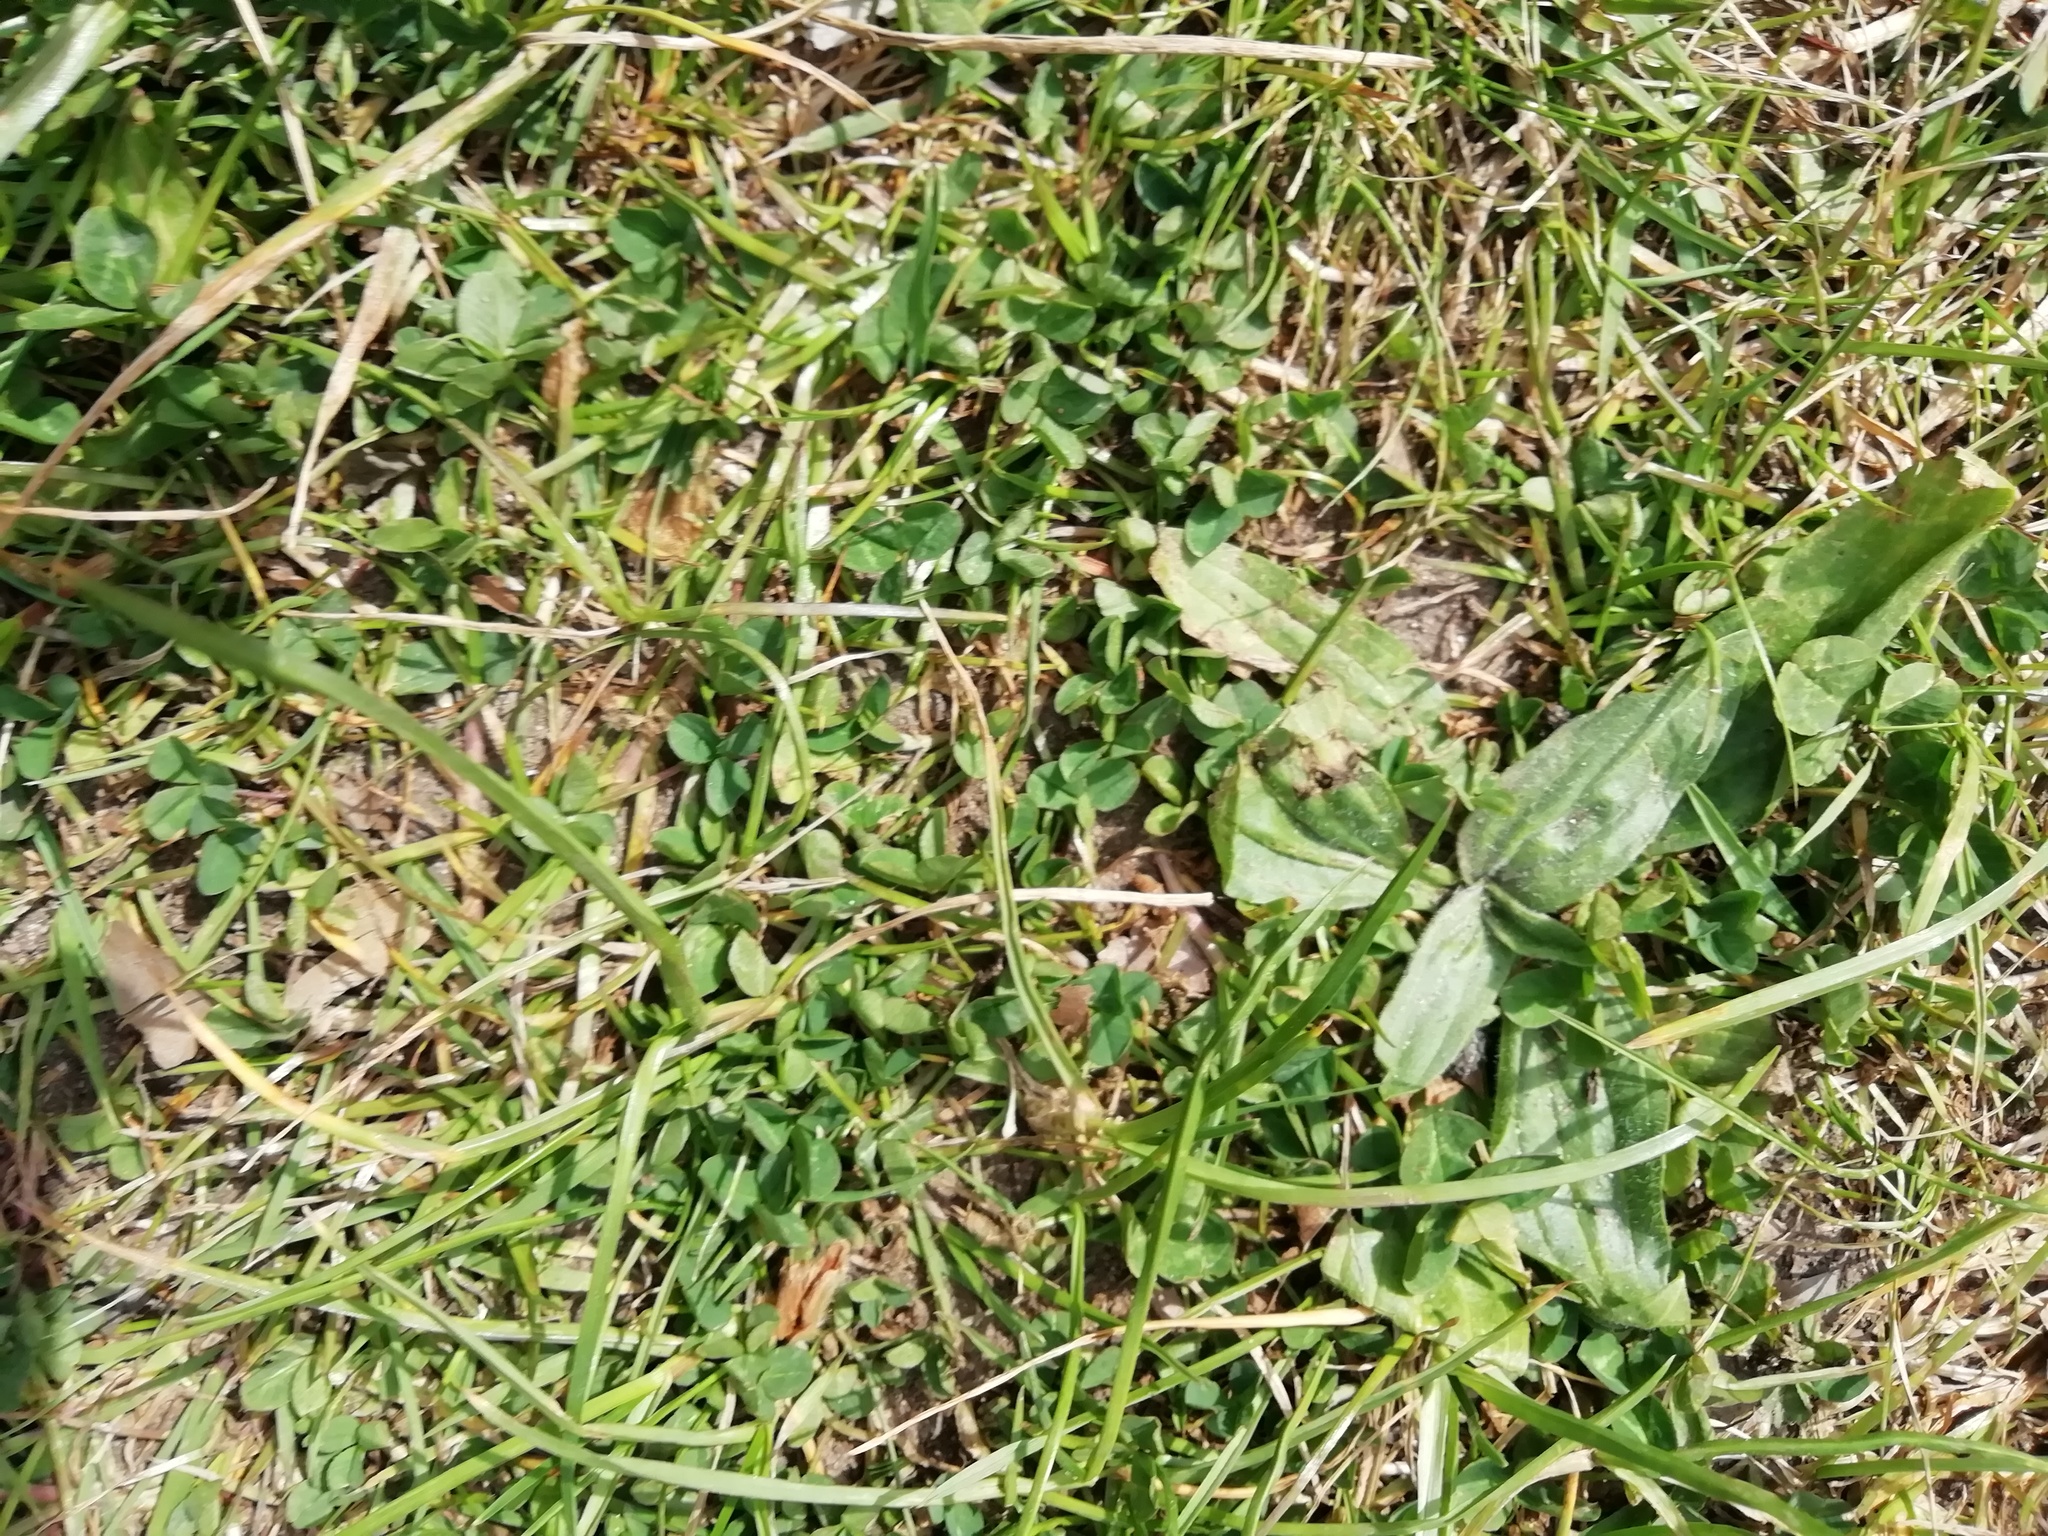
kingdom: Plantae
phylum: Tracheophyta
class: Magnoliopsida
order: Lamiales
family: Plantaginaceae
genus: Plantago
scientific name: Plantago lanceolata
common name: Ribwort plantain
